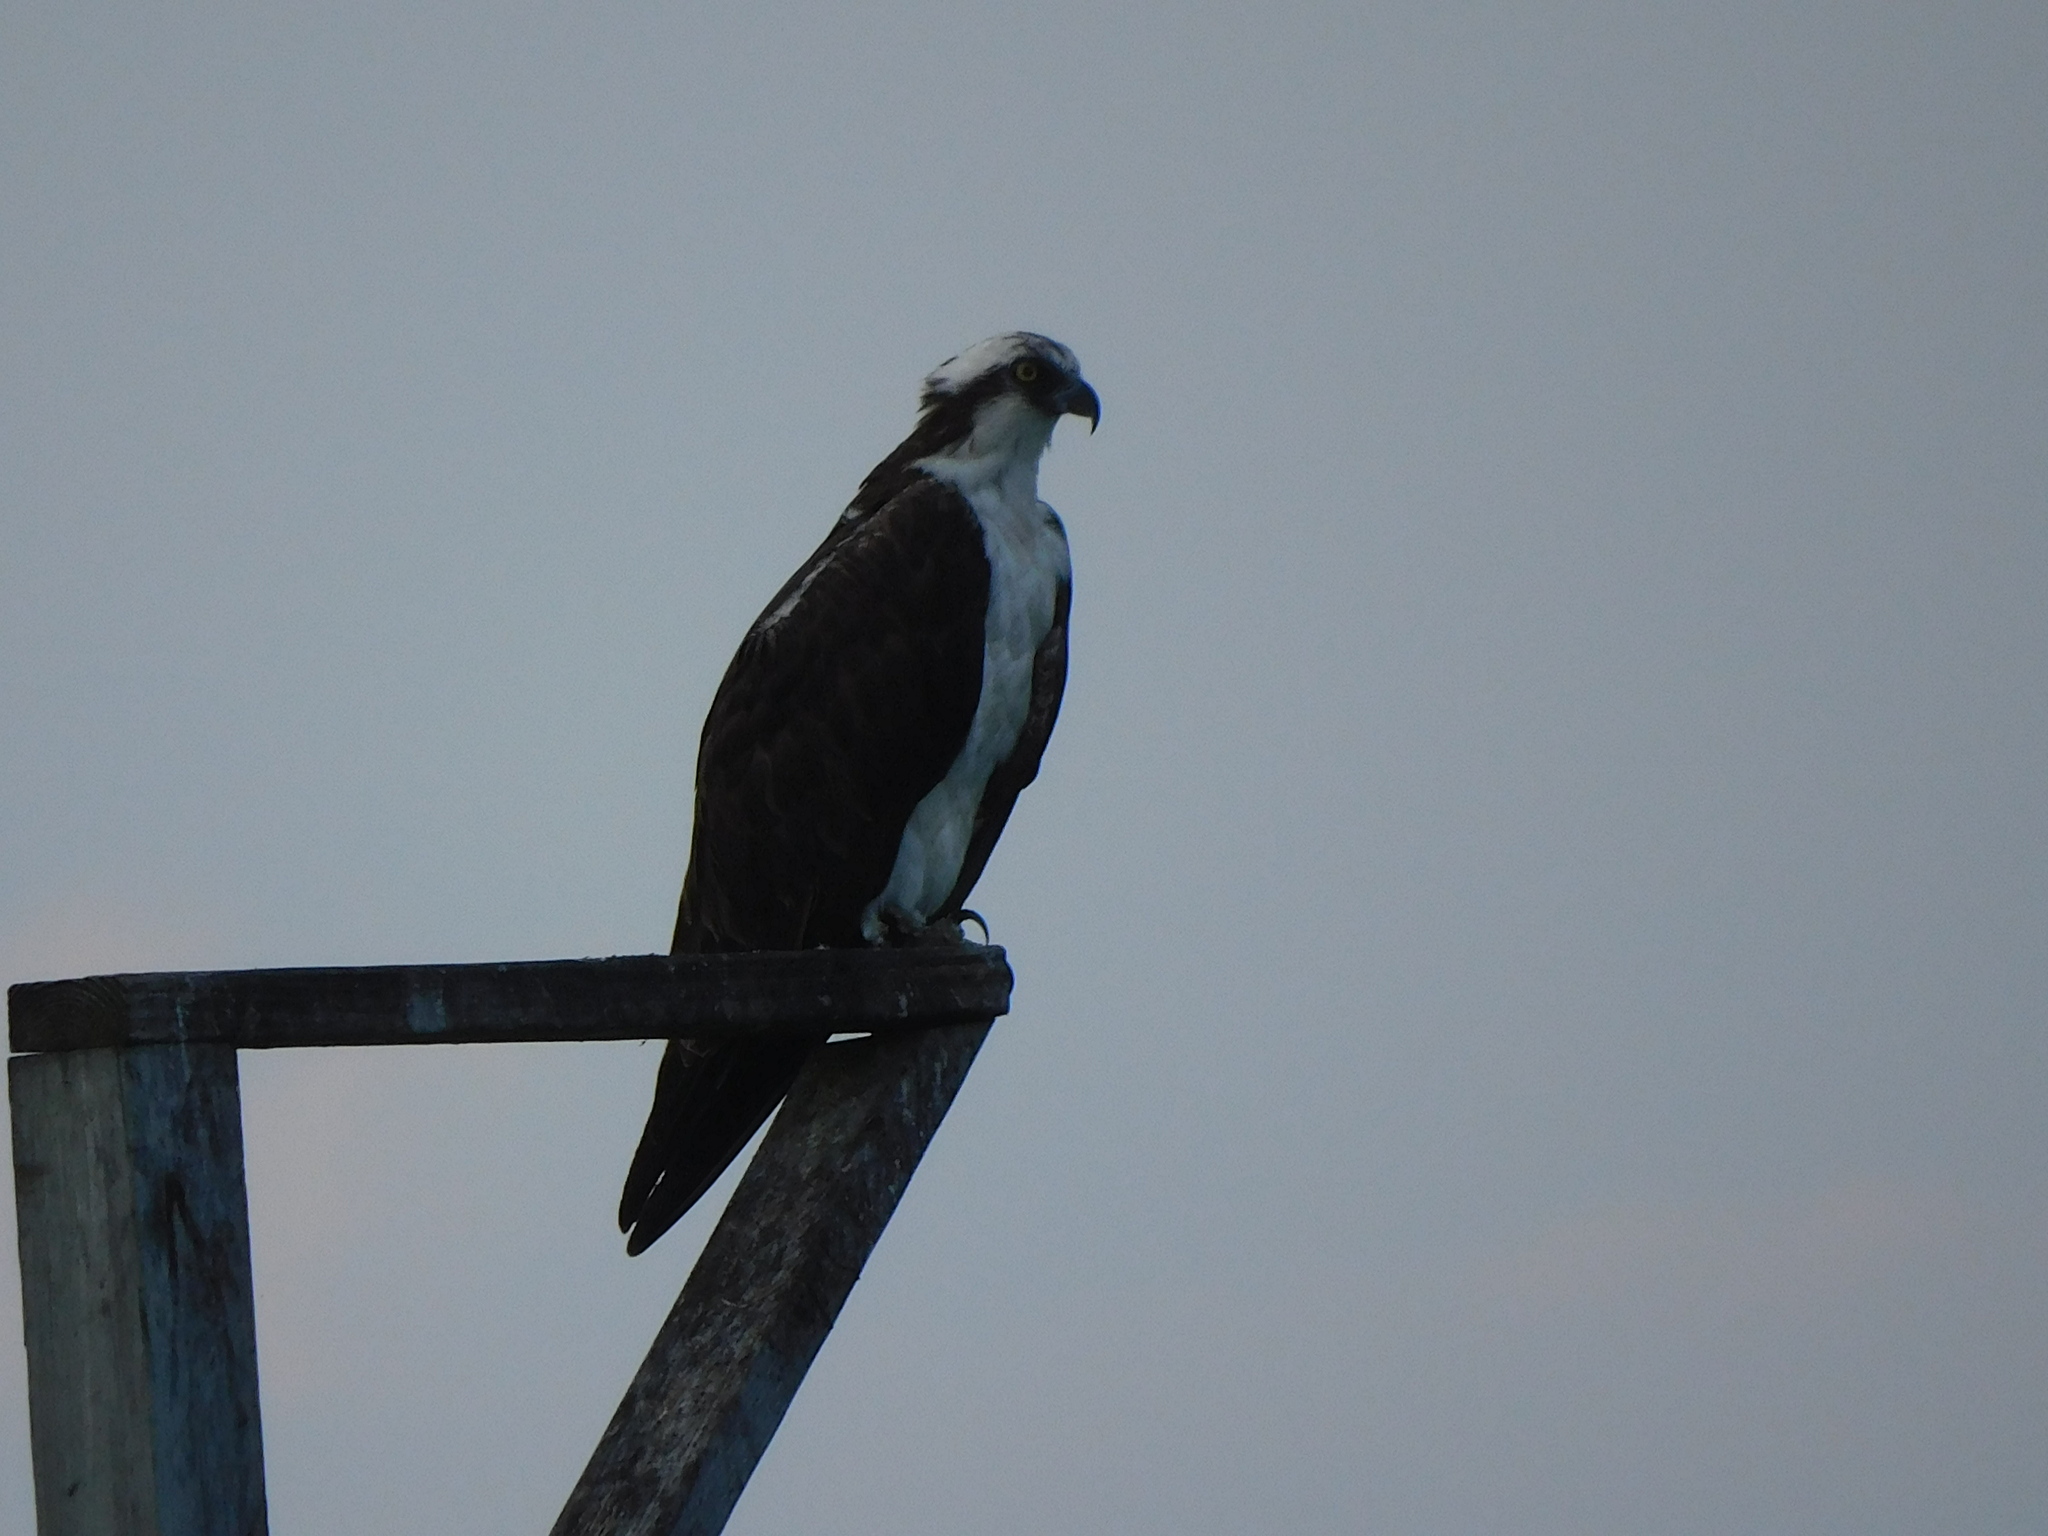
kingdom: Animalia
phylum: Chordata
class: Aves
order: Accipitriformes
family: Pandionidae
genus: Pandion
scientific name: Pandion haliaetus
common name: Osprey
